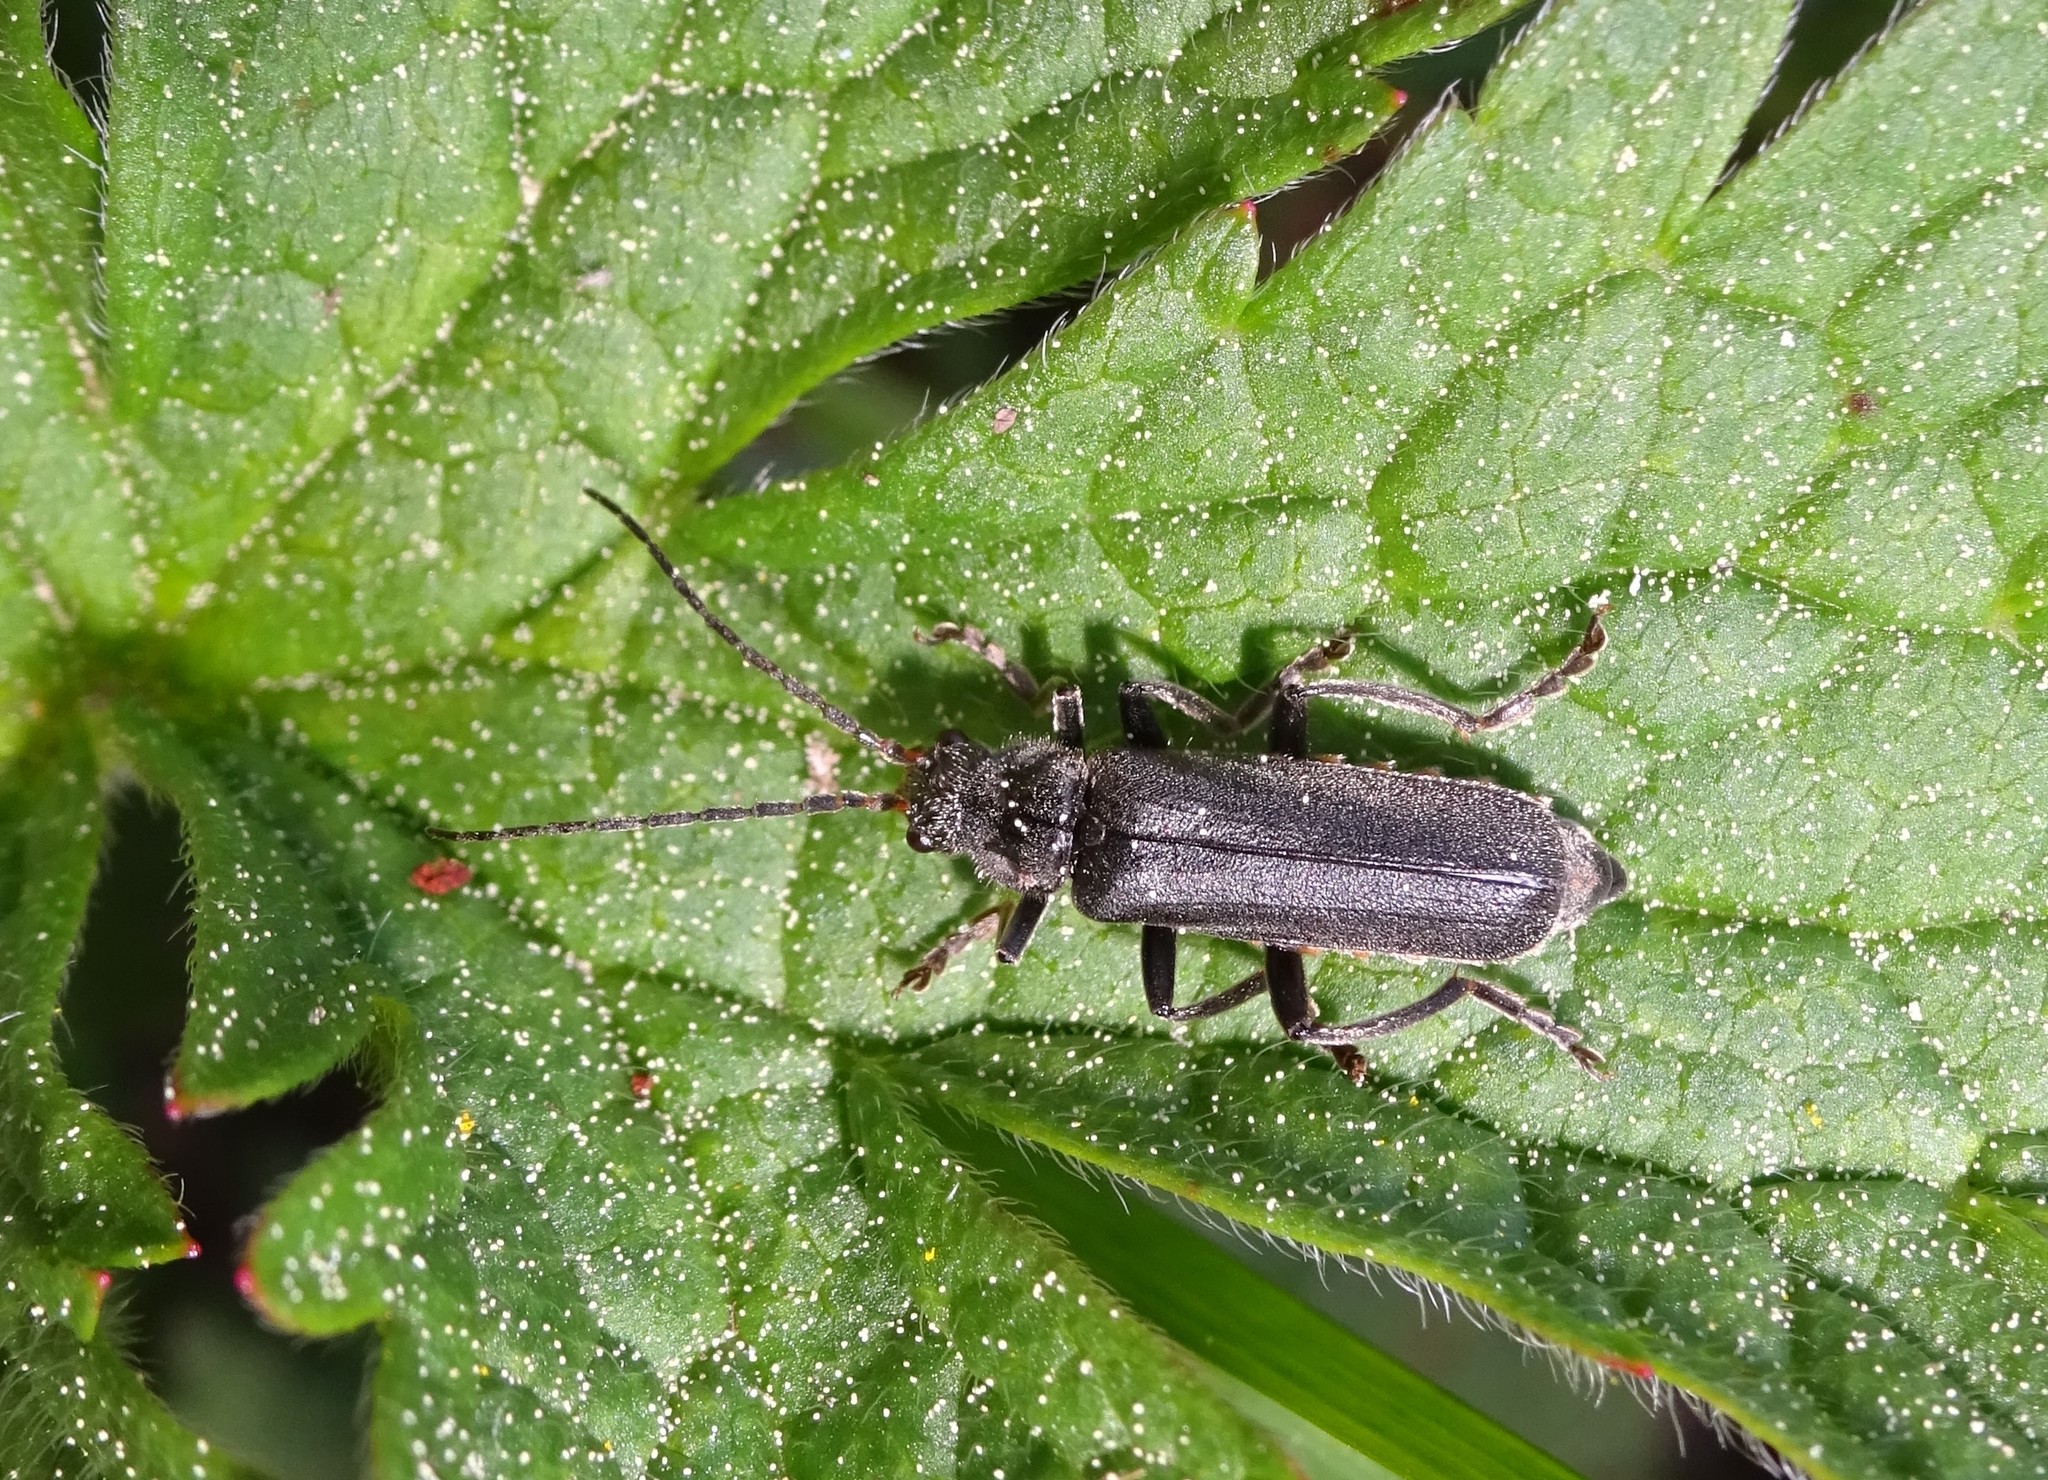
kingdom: Animalia
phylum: Arthropoda
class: Insecta
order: Coleoptera
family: Cantharidae
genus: Cantharis
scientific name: Cantharis tristis
